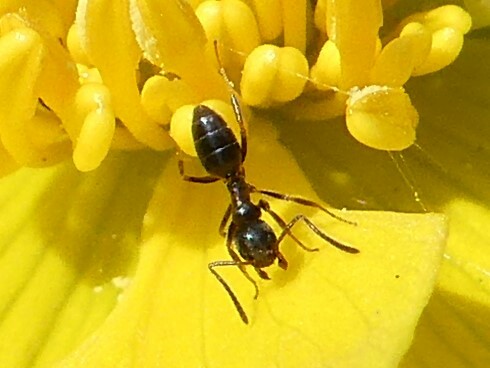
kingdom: Animalia
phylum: Arthropoda
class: Insecta
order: Hymenoptera
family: Formicidae
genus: Tapinoma
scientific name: Tapinoma sessile
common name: Odorous house ant
